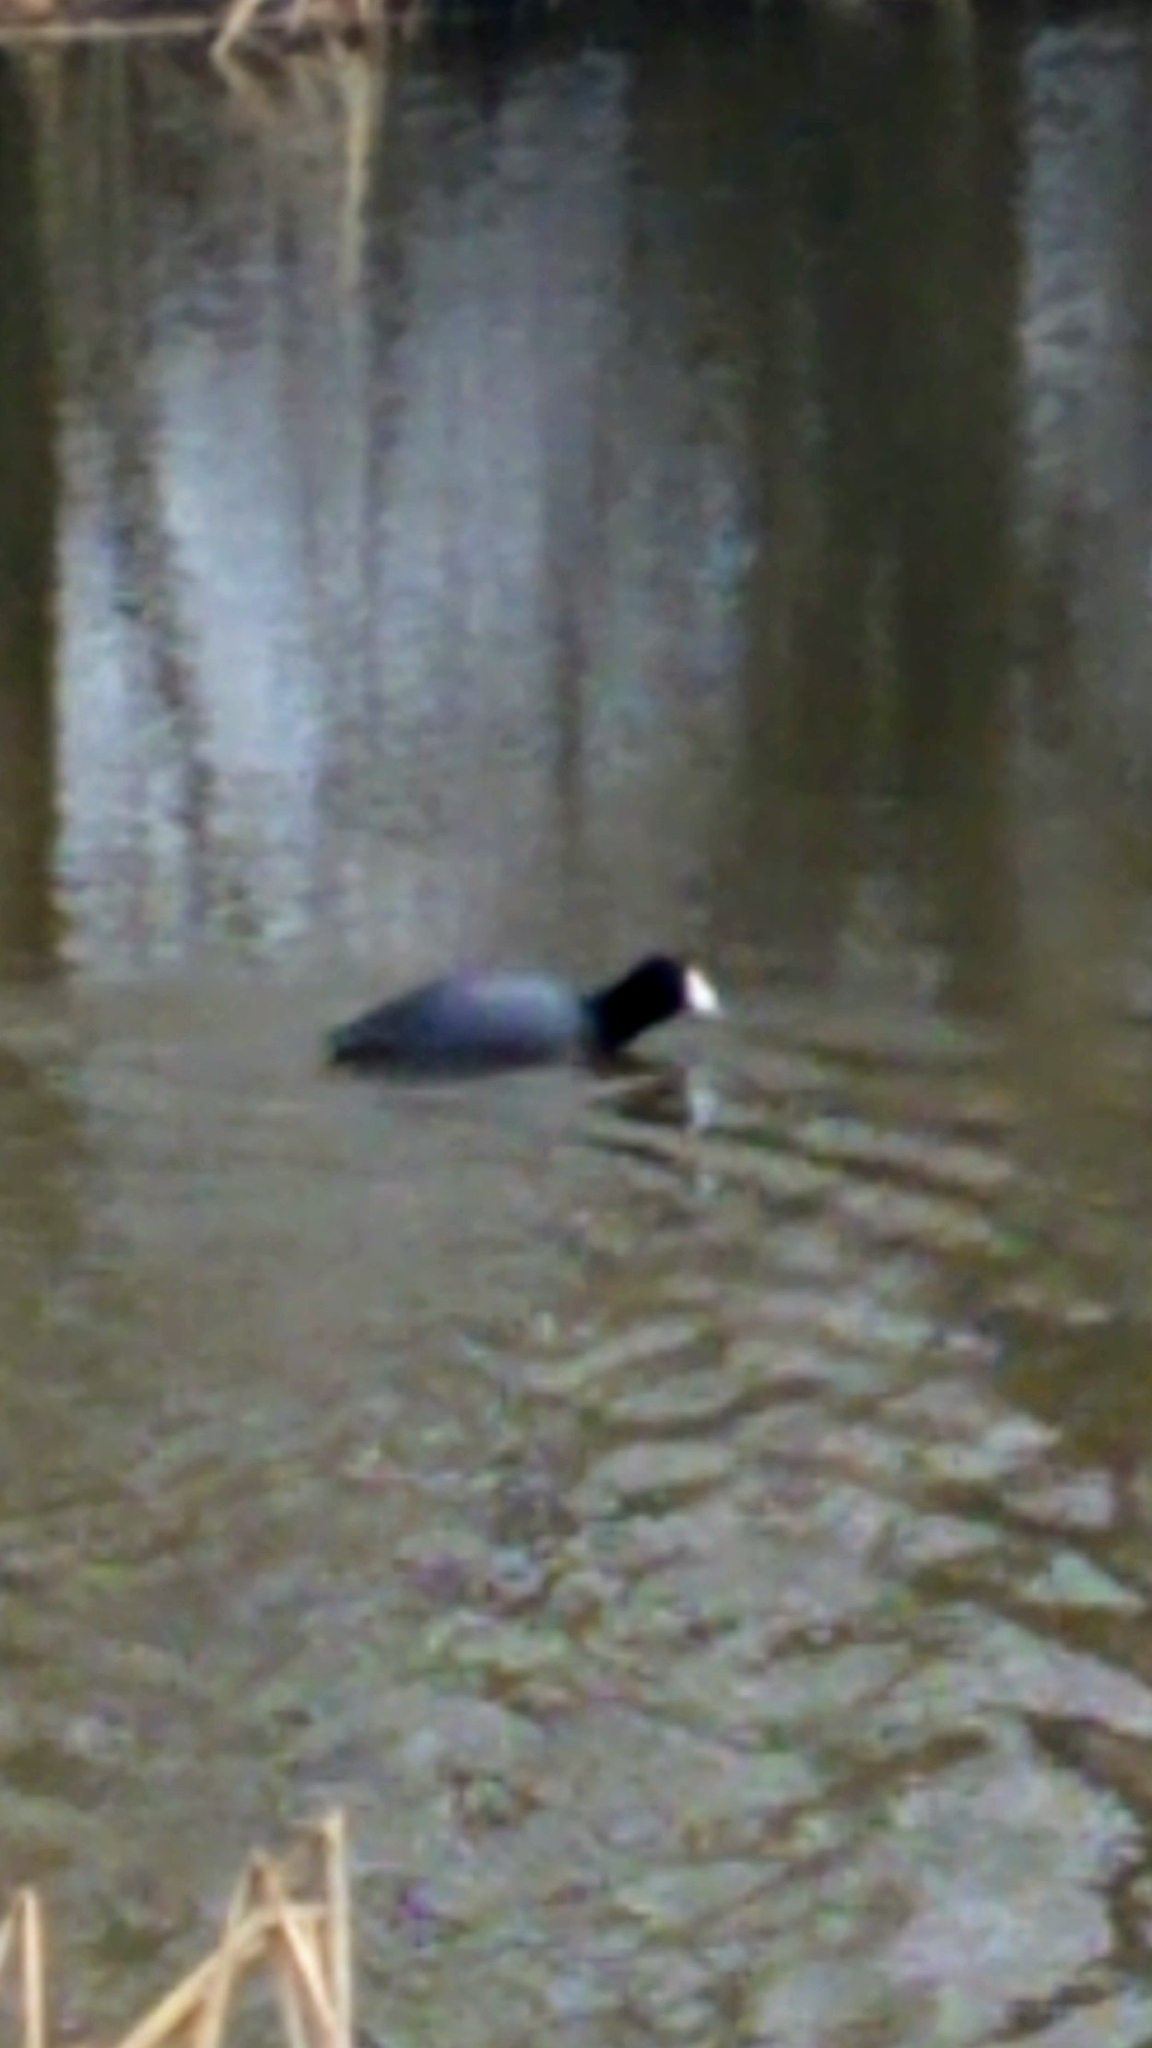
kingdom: Animalia
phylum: Chordata
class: Aves
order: Gruiformes
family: Rallidae
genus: Fulica
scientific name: Fulica americana
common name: American coot
